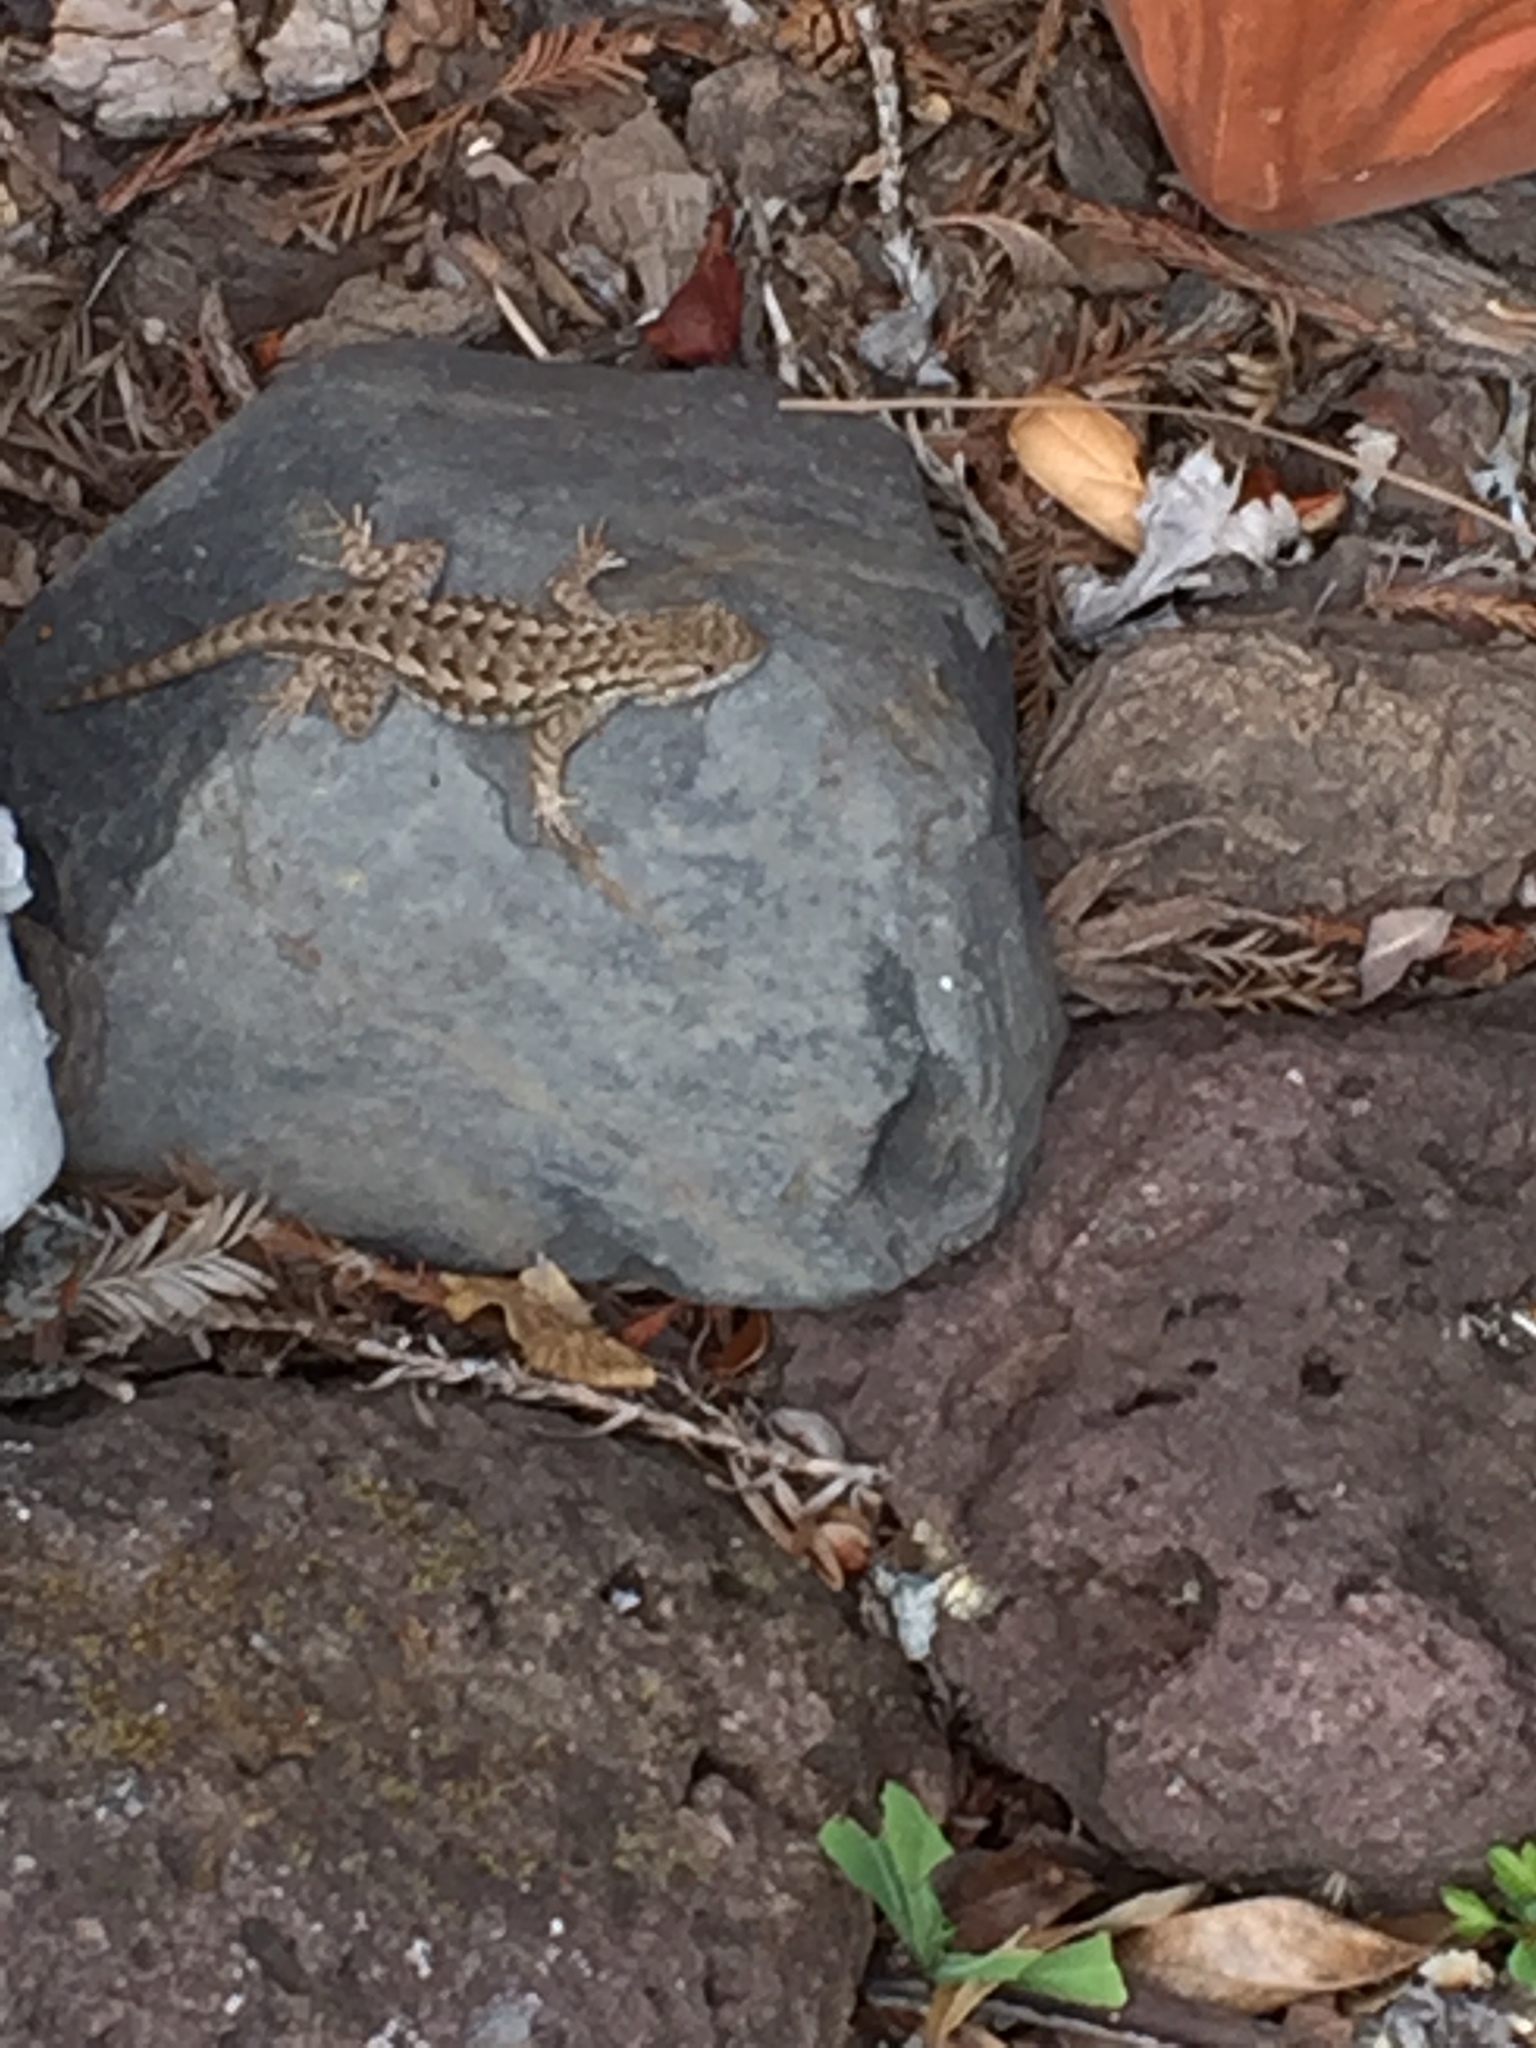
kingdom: Animalia
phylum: Chordata
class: Squamata
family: Phrynosomatidae
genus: Sceloporus
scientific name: Sceloporus occidentalis
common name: Western fence lizard
